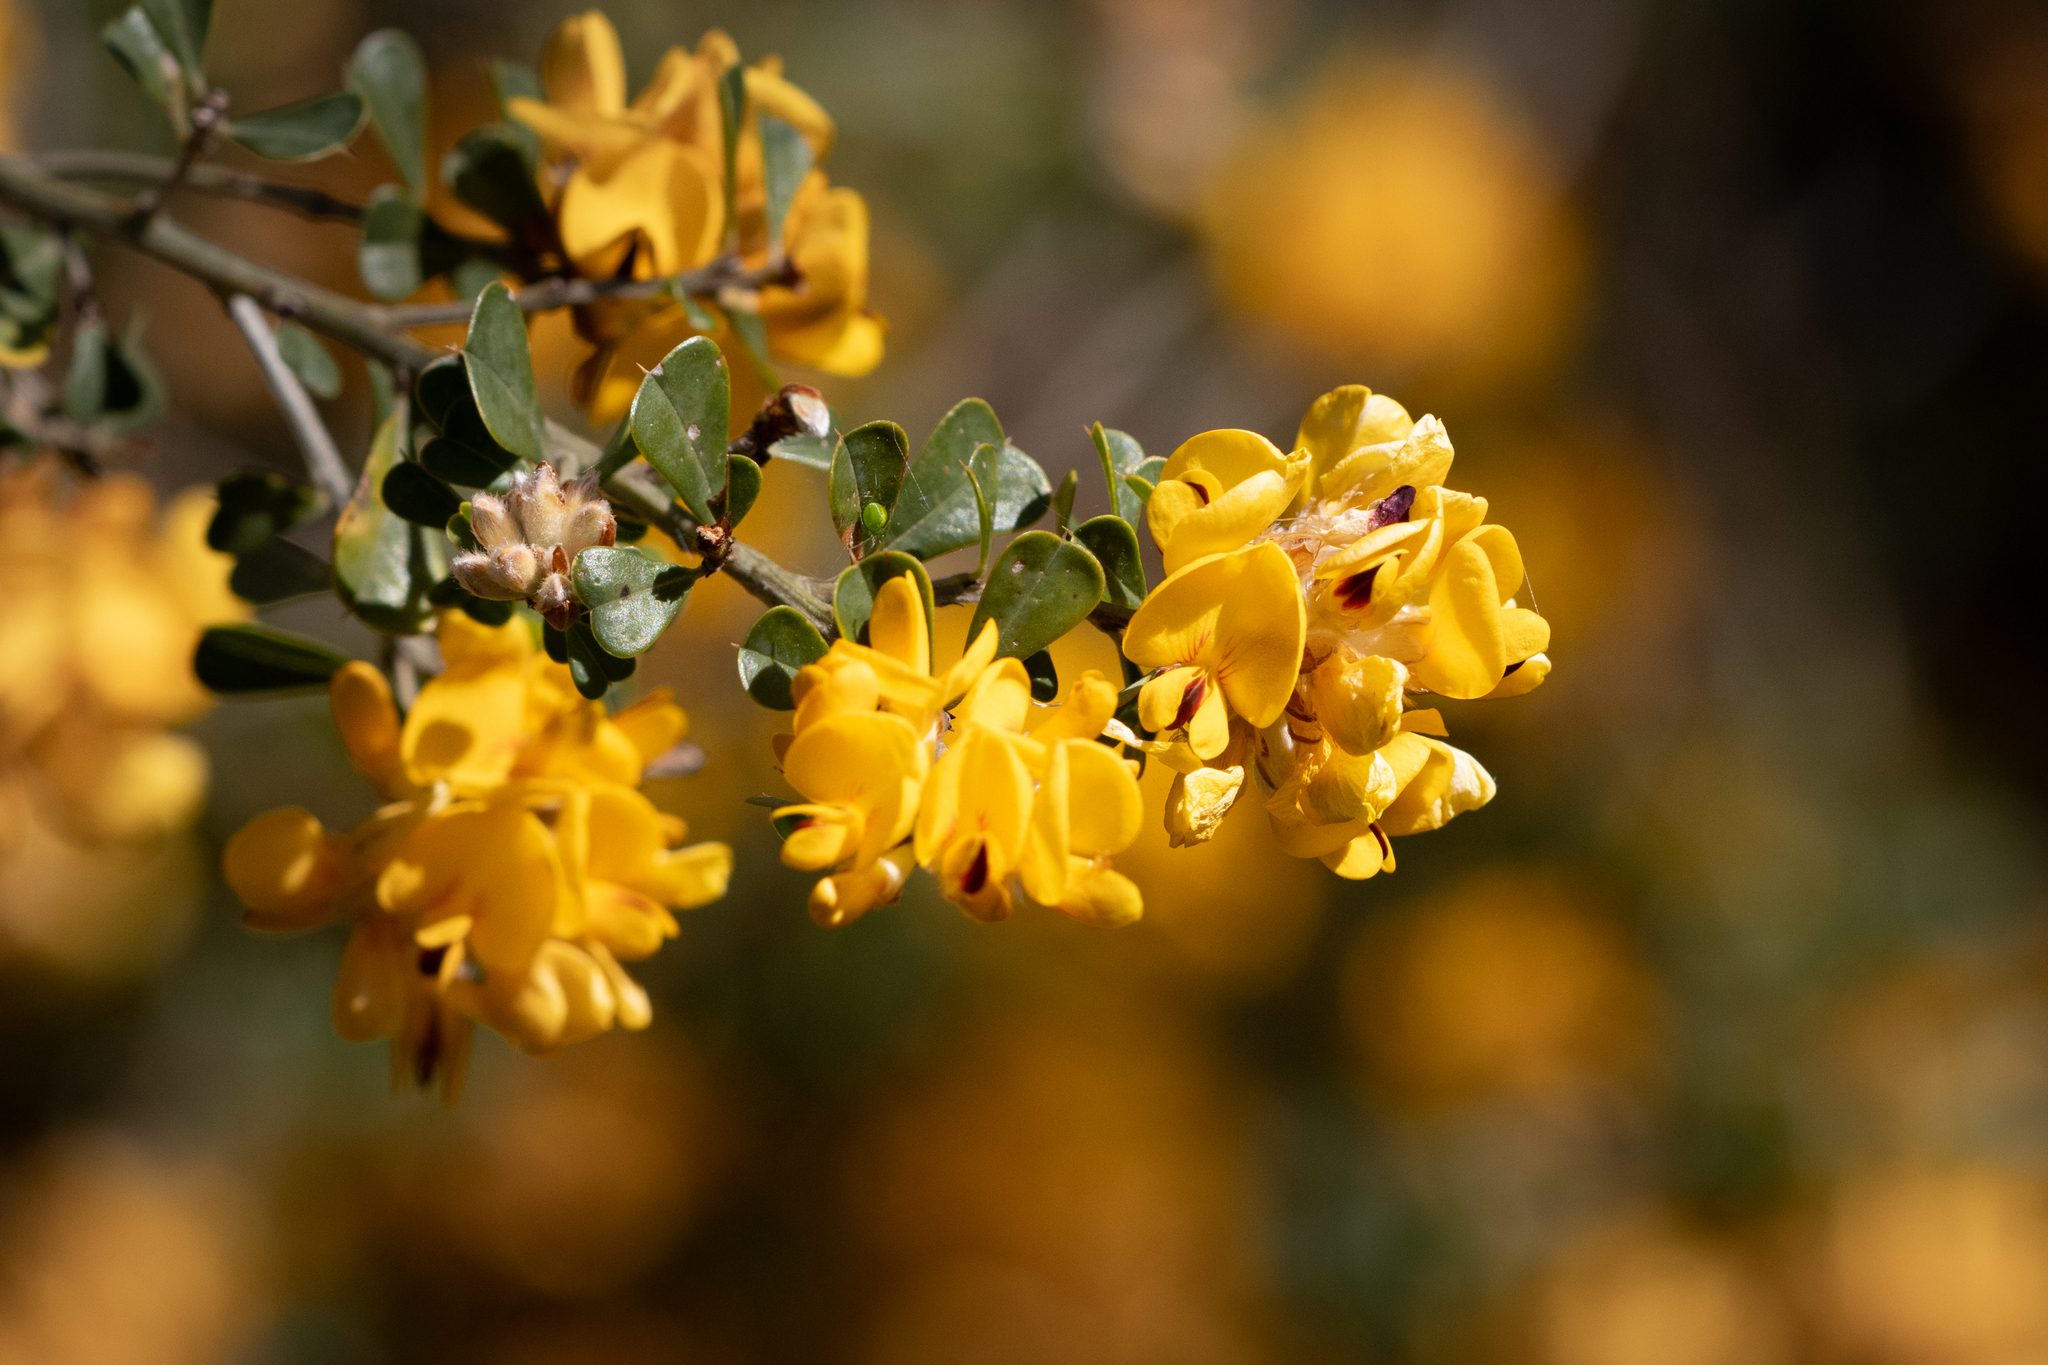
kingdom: Plantae
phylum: Tracheophyta
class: Magnoliopsida
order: Fabales
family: Fabaceae
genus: Pultenaea
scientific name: Pultenaea daphnoides
